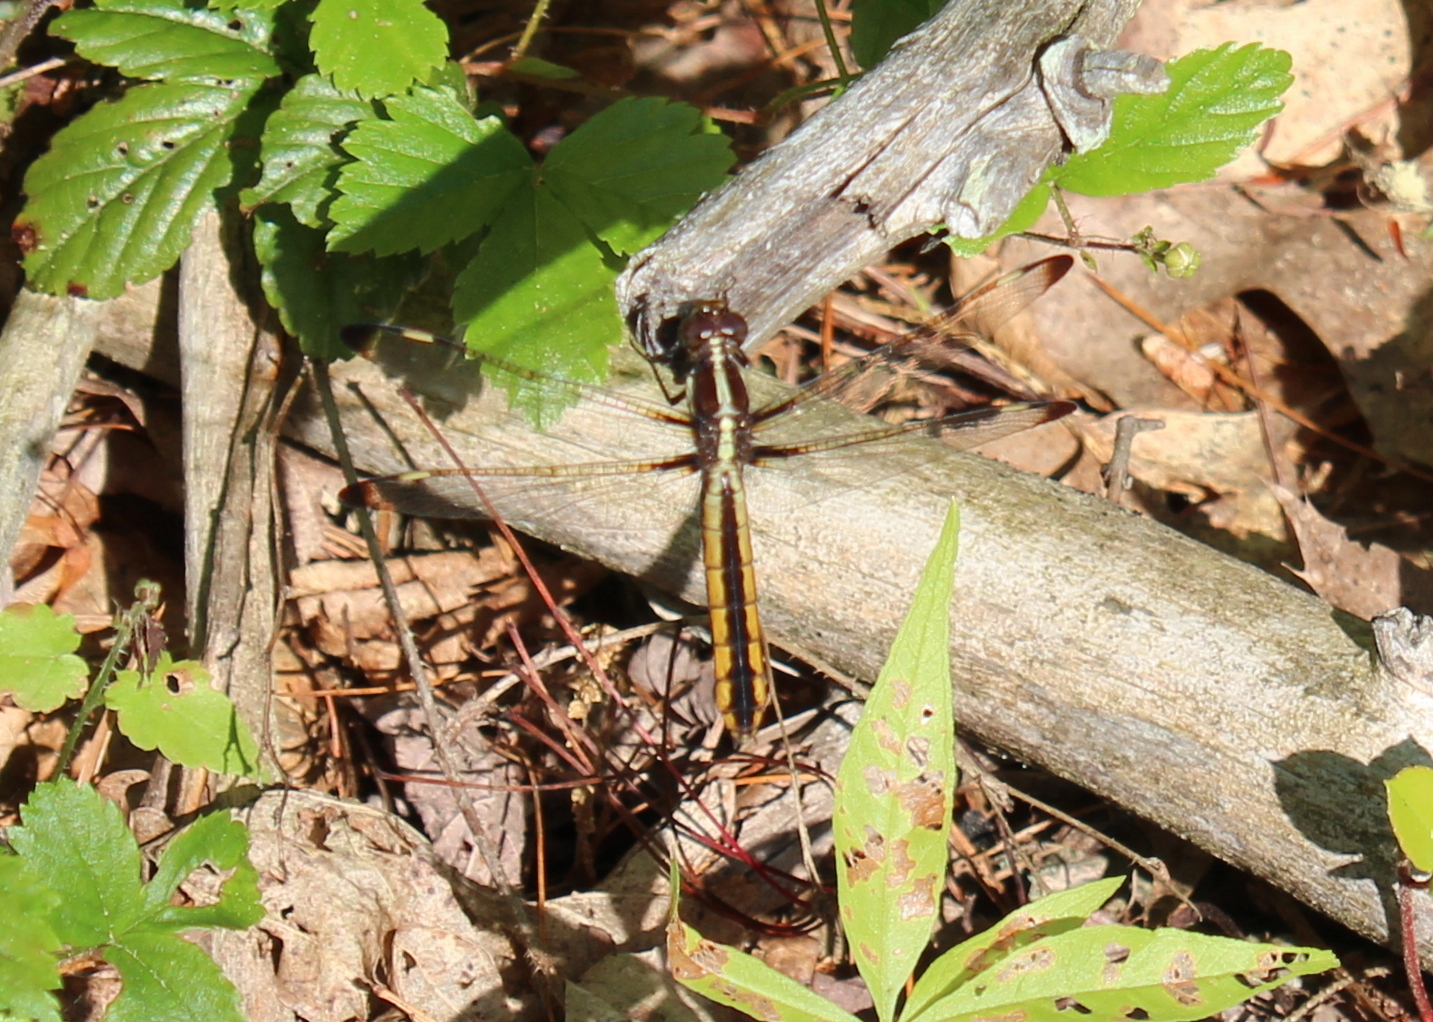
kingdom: Animalia
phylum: Arthropoda
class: Insecta
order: Odonata
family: Libellulidae
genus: Libellula
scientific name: Libellula cyanea
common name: Spangled skimmer
